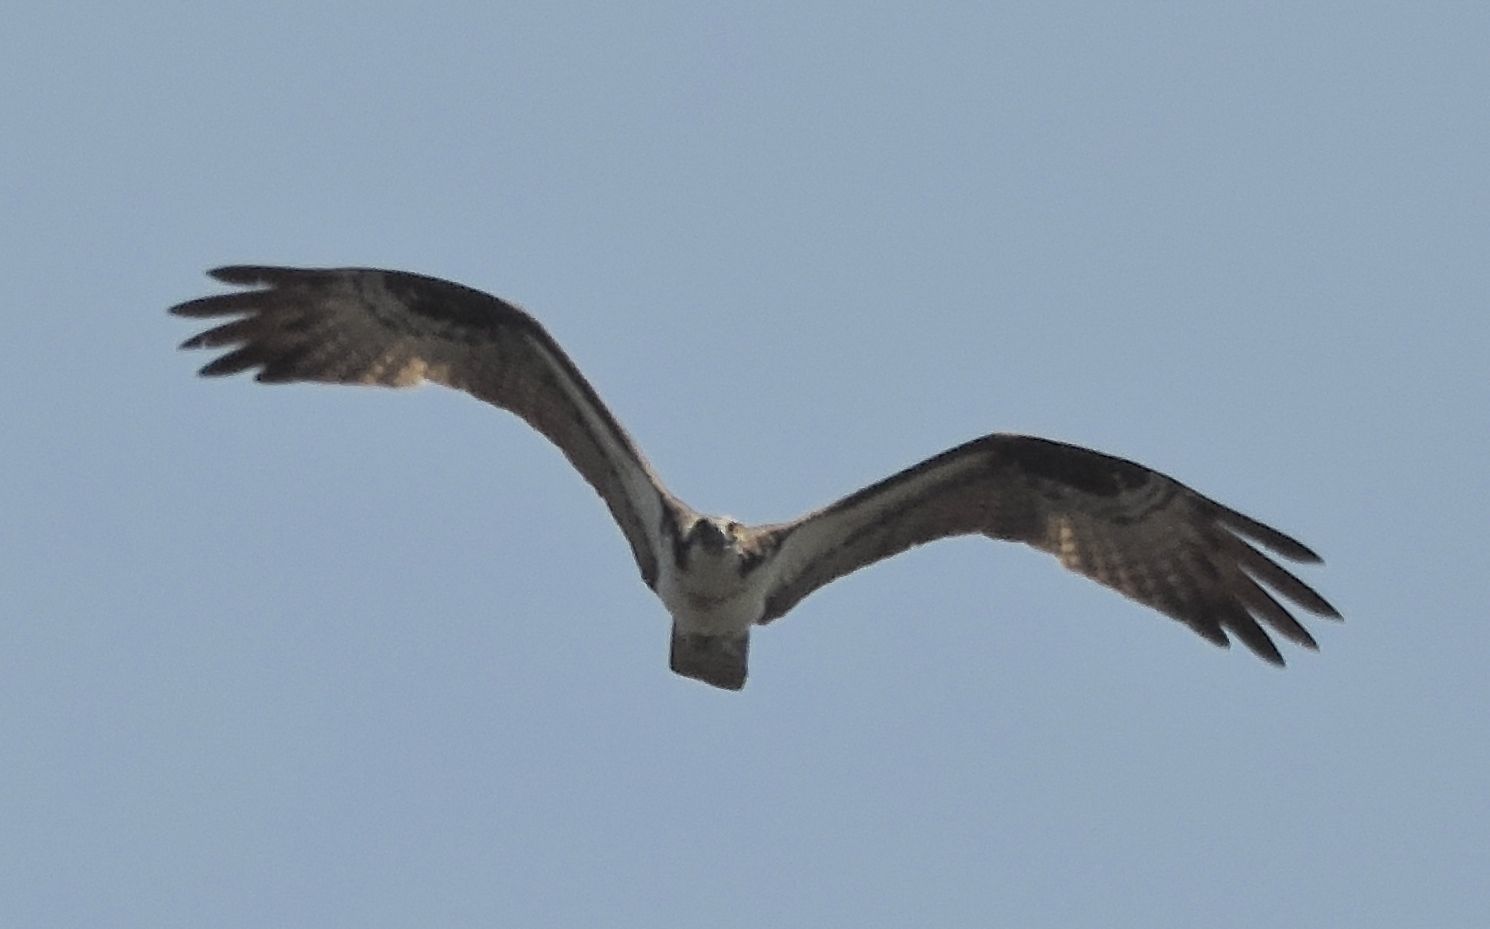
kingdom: Animalia
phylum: Chordata
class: Aves
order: Accipitriformes
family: Pandionidae
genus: Pandion
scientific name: Pandion haliaetus
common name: Osprey
